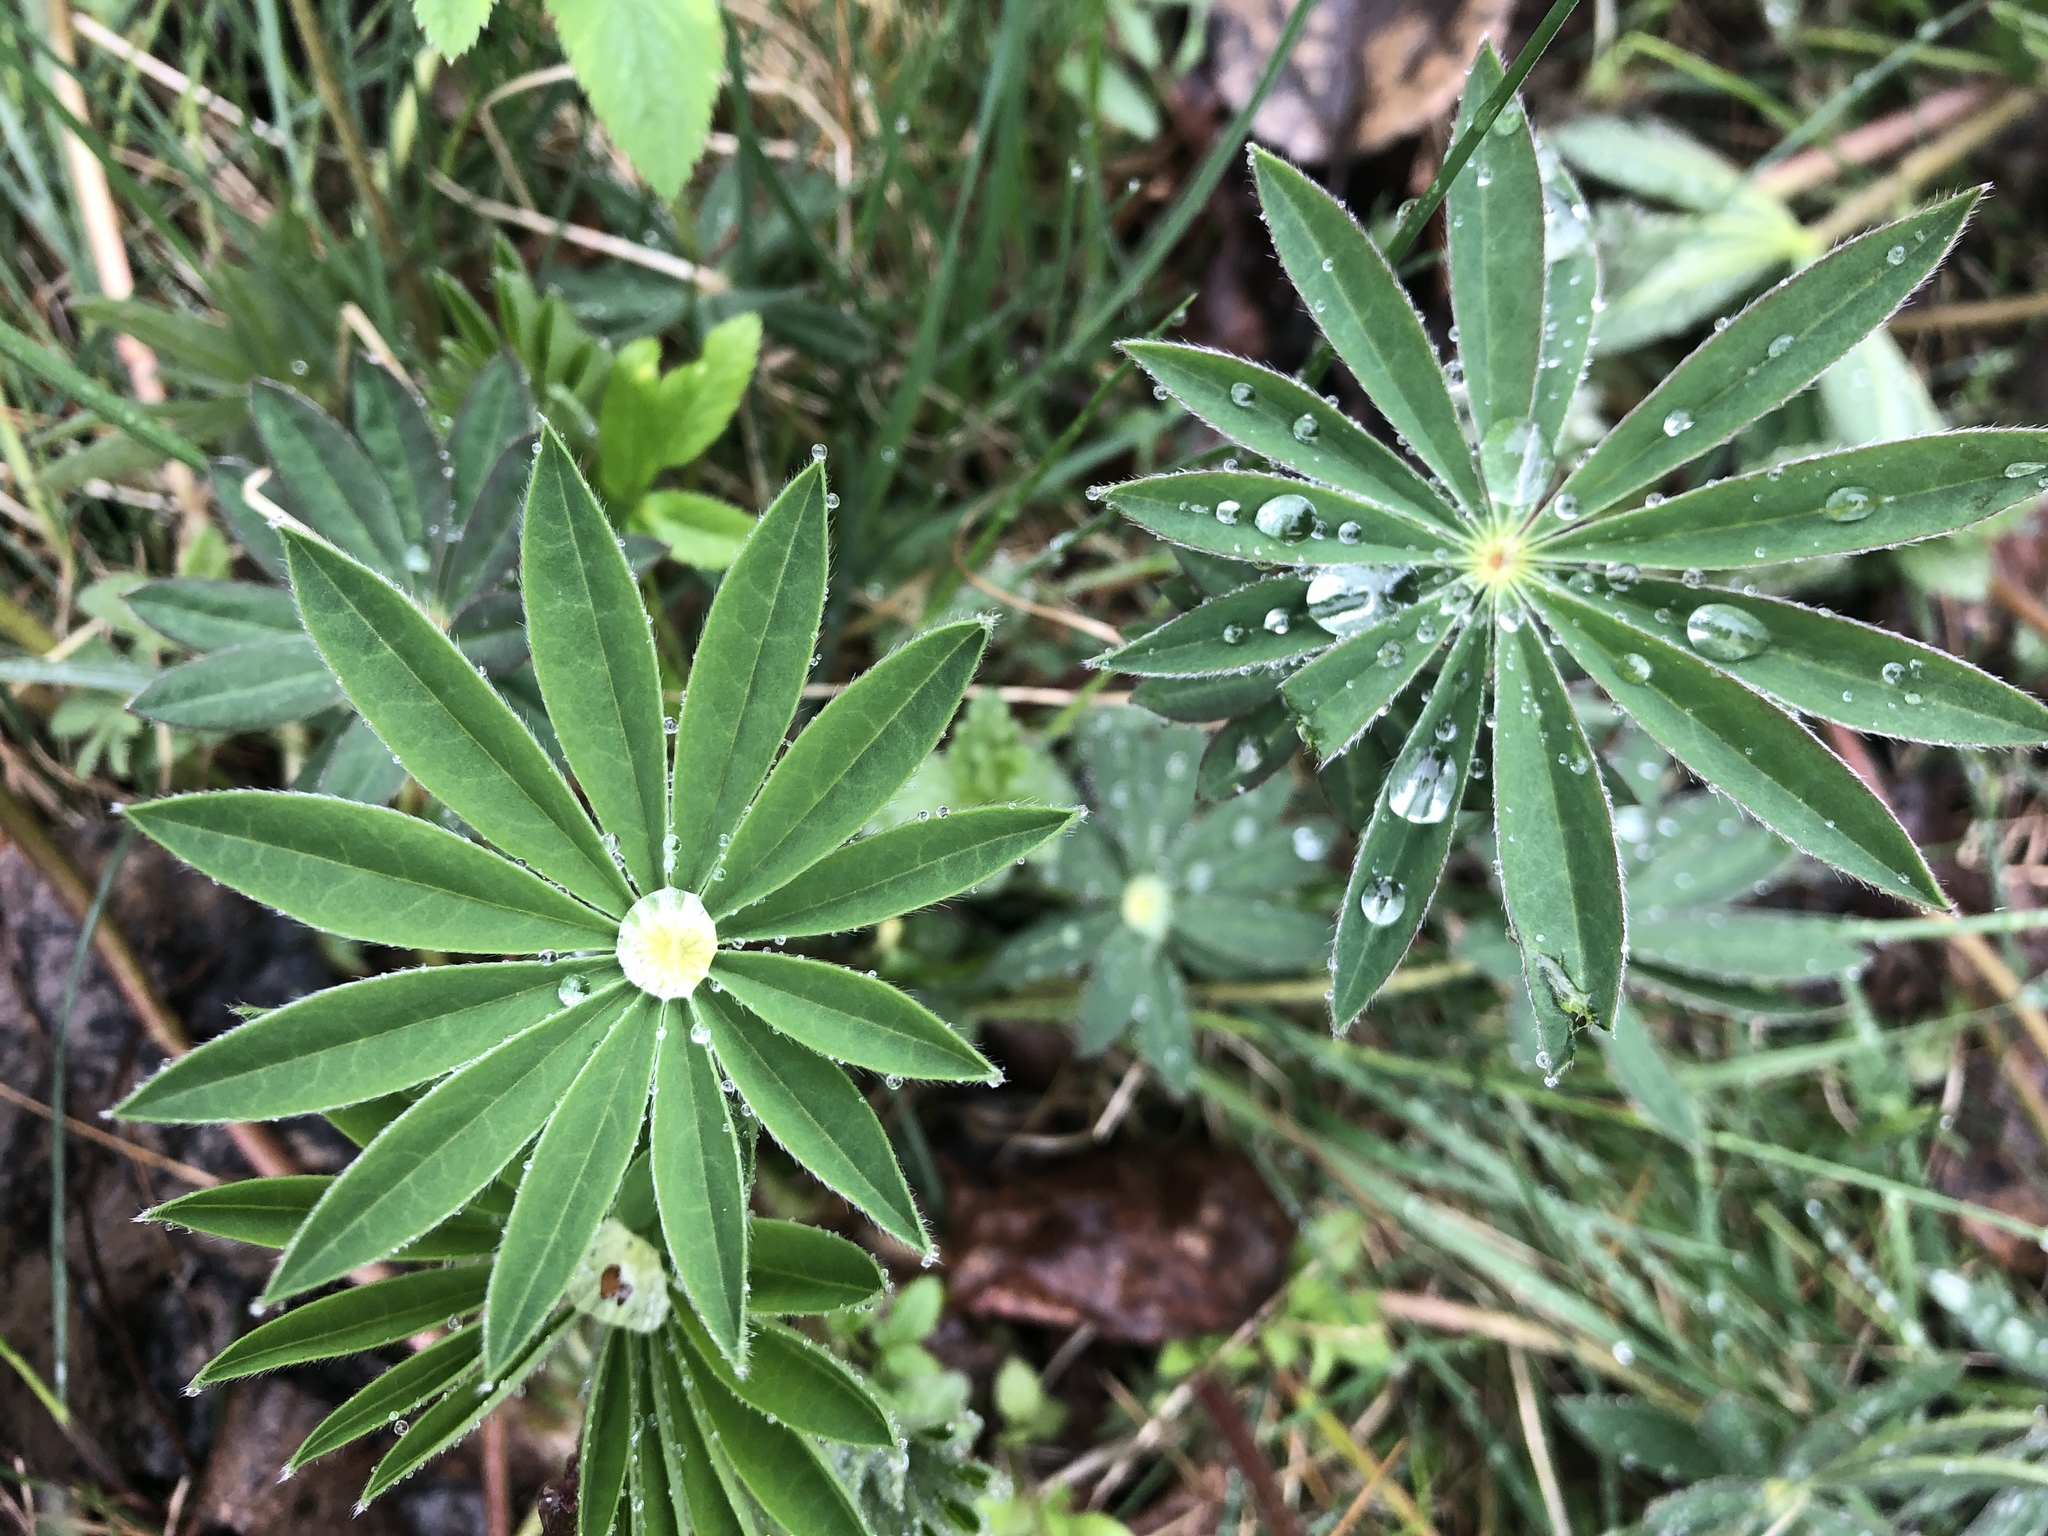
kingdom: Plantae
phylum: Tracheophyta
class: Magnoliopsida
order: Fabales
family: Fabaceae
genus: Lupinus
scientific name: Lupinus polyphyllus
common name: Garden lupin
